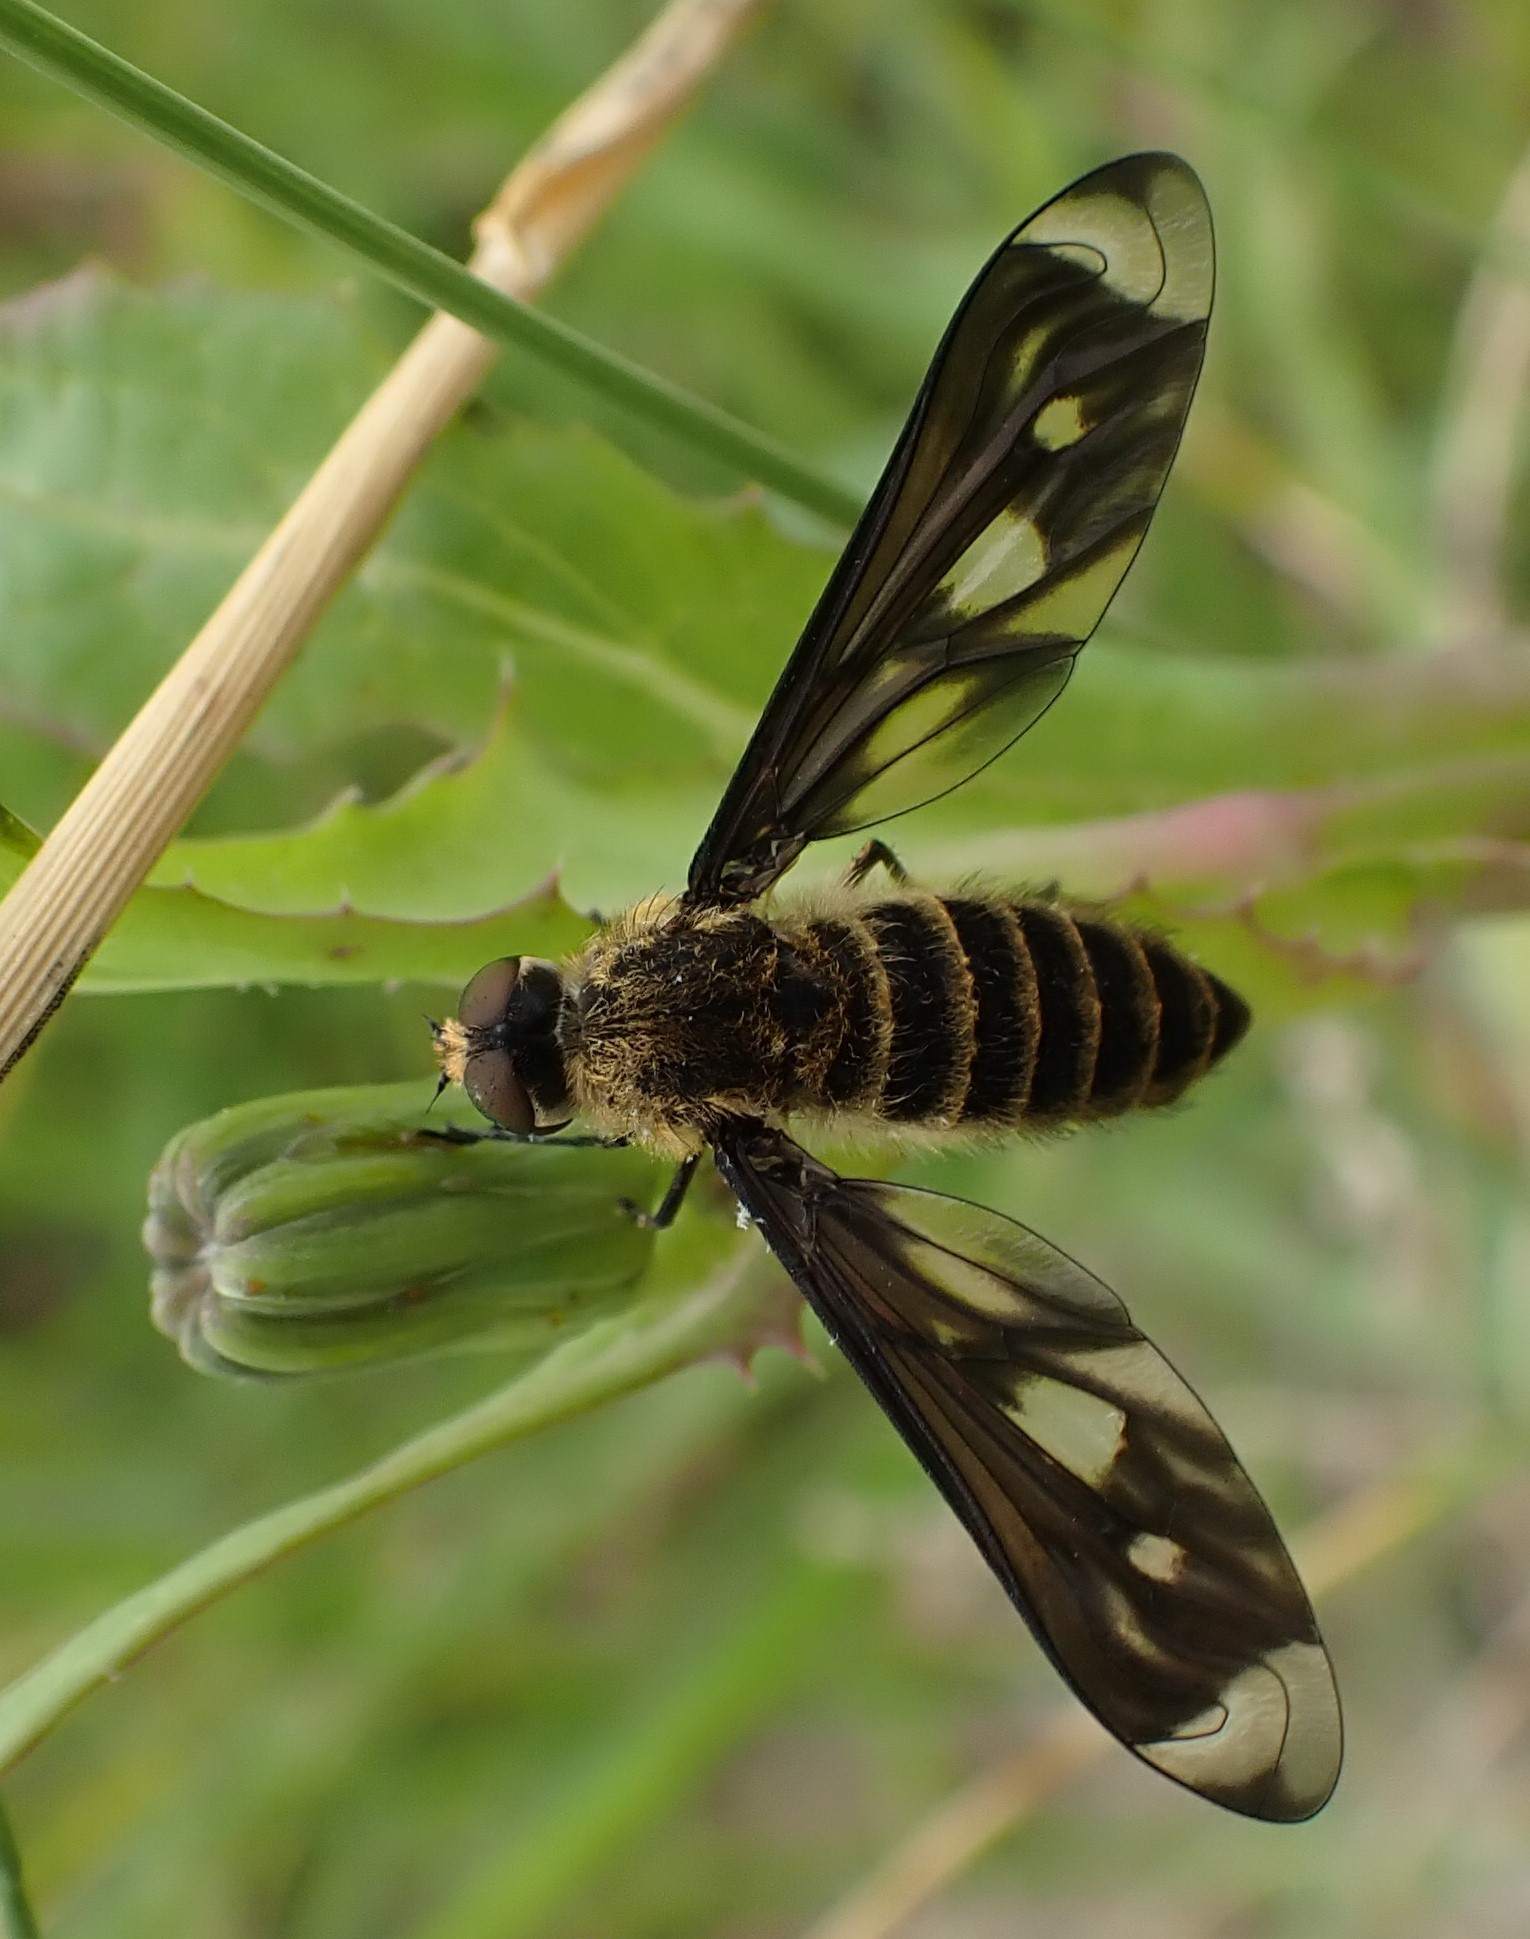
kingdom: Animalia
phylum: Arthropoda
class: Insecta
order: Diptera
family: Bombyliidae
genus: Comptosia
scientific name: Comptosia ocellata
